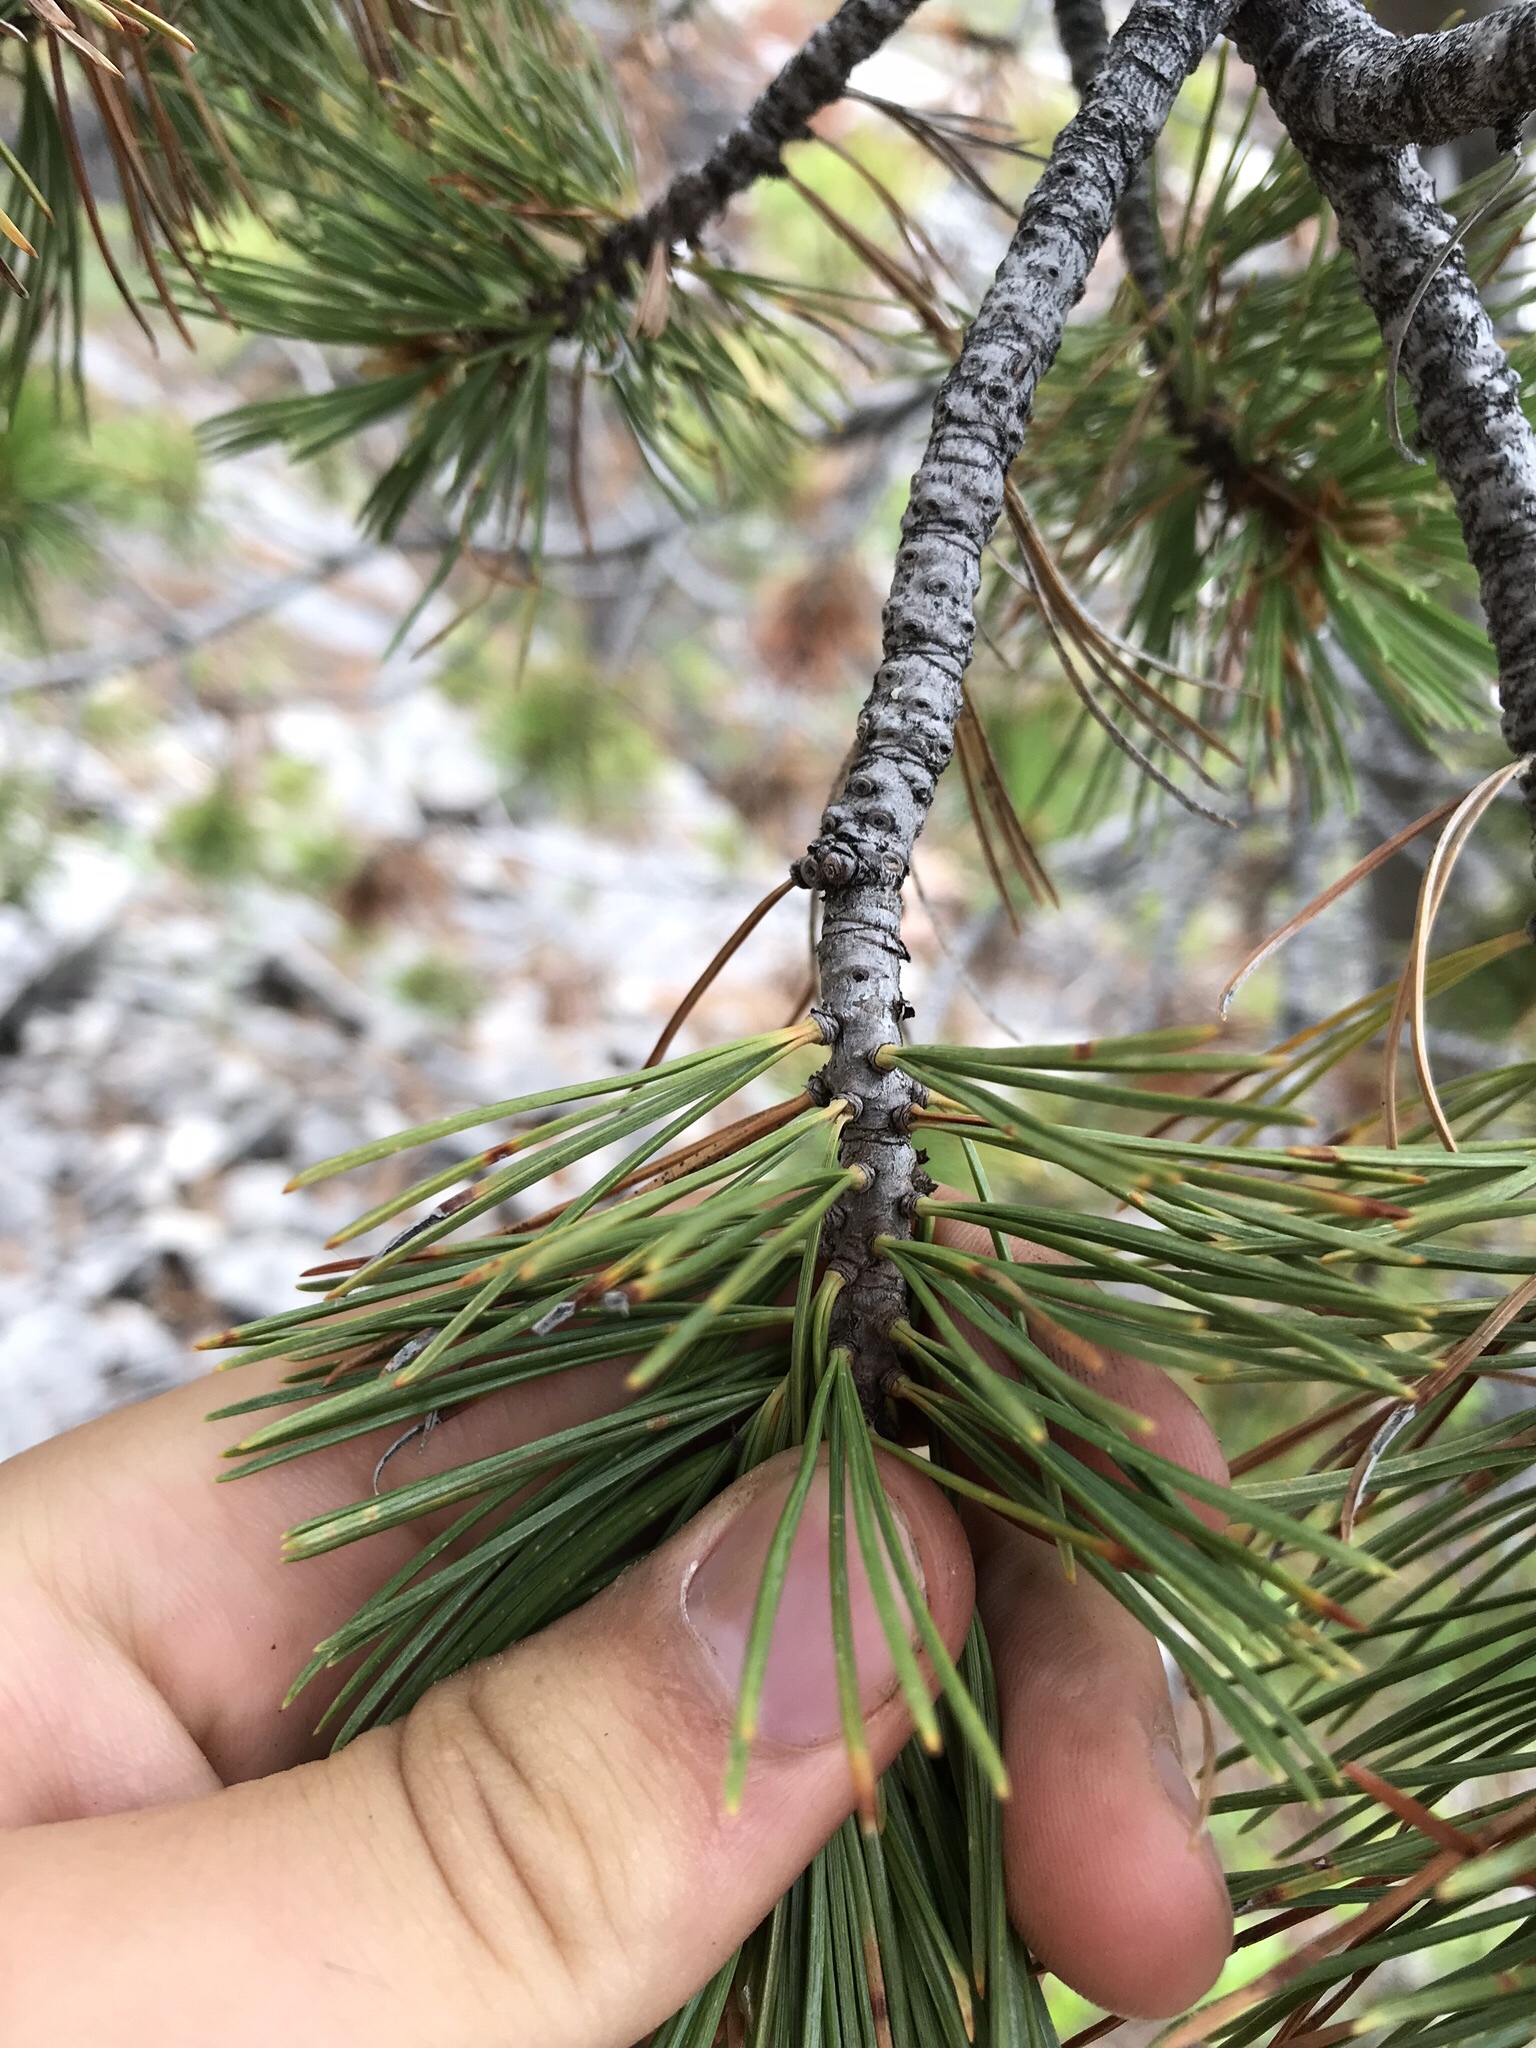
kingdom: Plantae
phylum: Tracheophyta
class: Pinopsida
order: Pinales
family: Pinaceae
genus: Pinus
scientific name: Pinus albicaulis
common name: Whitebark pine
